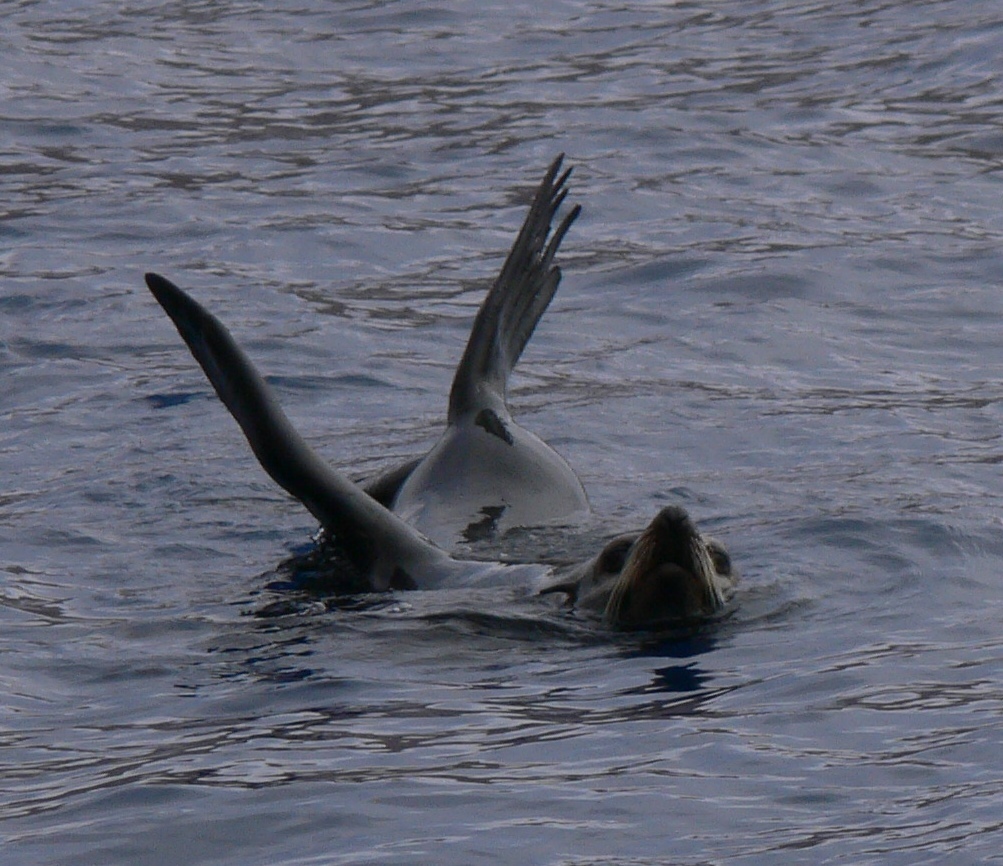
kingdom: Animalia
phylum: Chordata
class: Mammalia
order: Carnivora
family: Otariidae
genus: Arctocephalus
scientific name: Arctocephalus philippii
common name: Juan fernández fur seal
